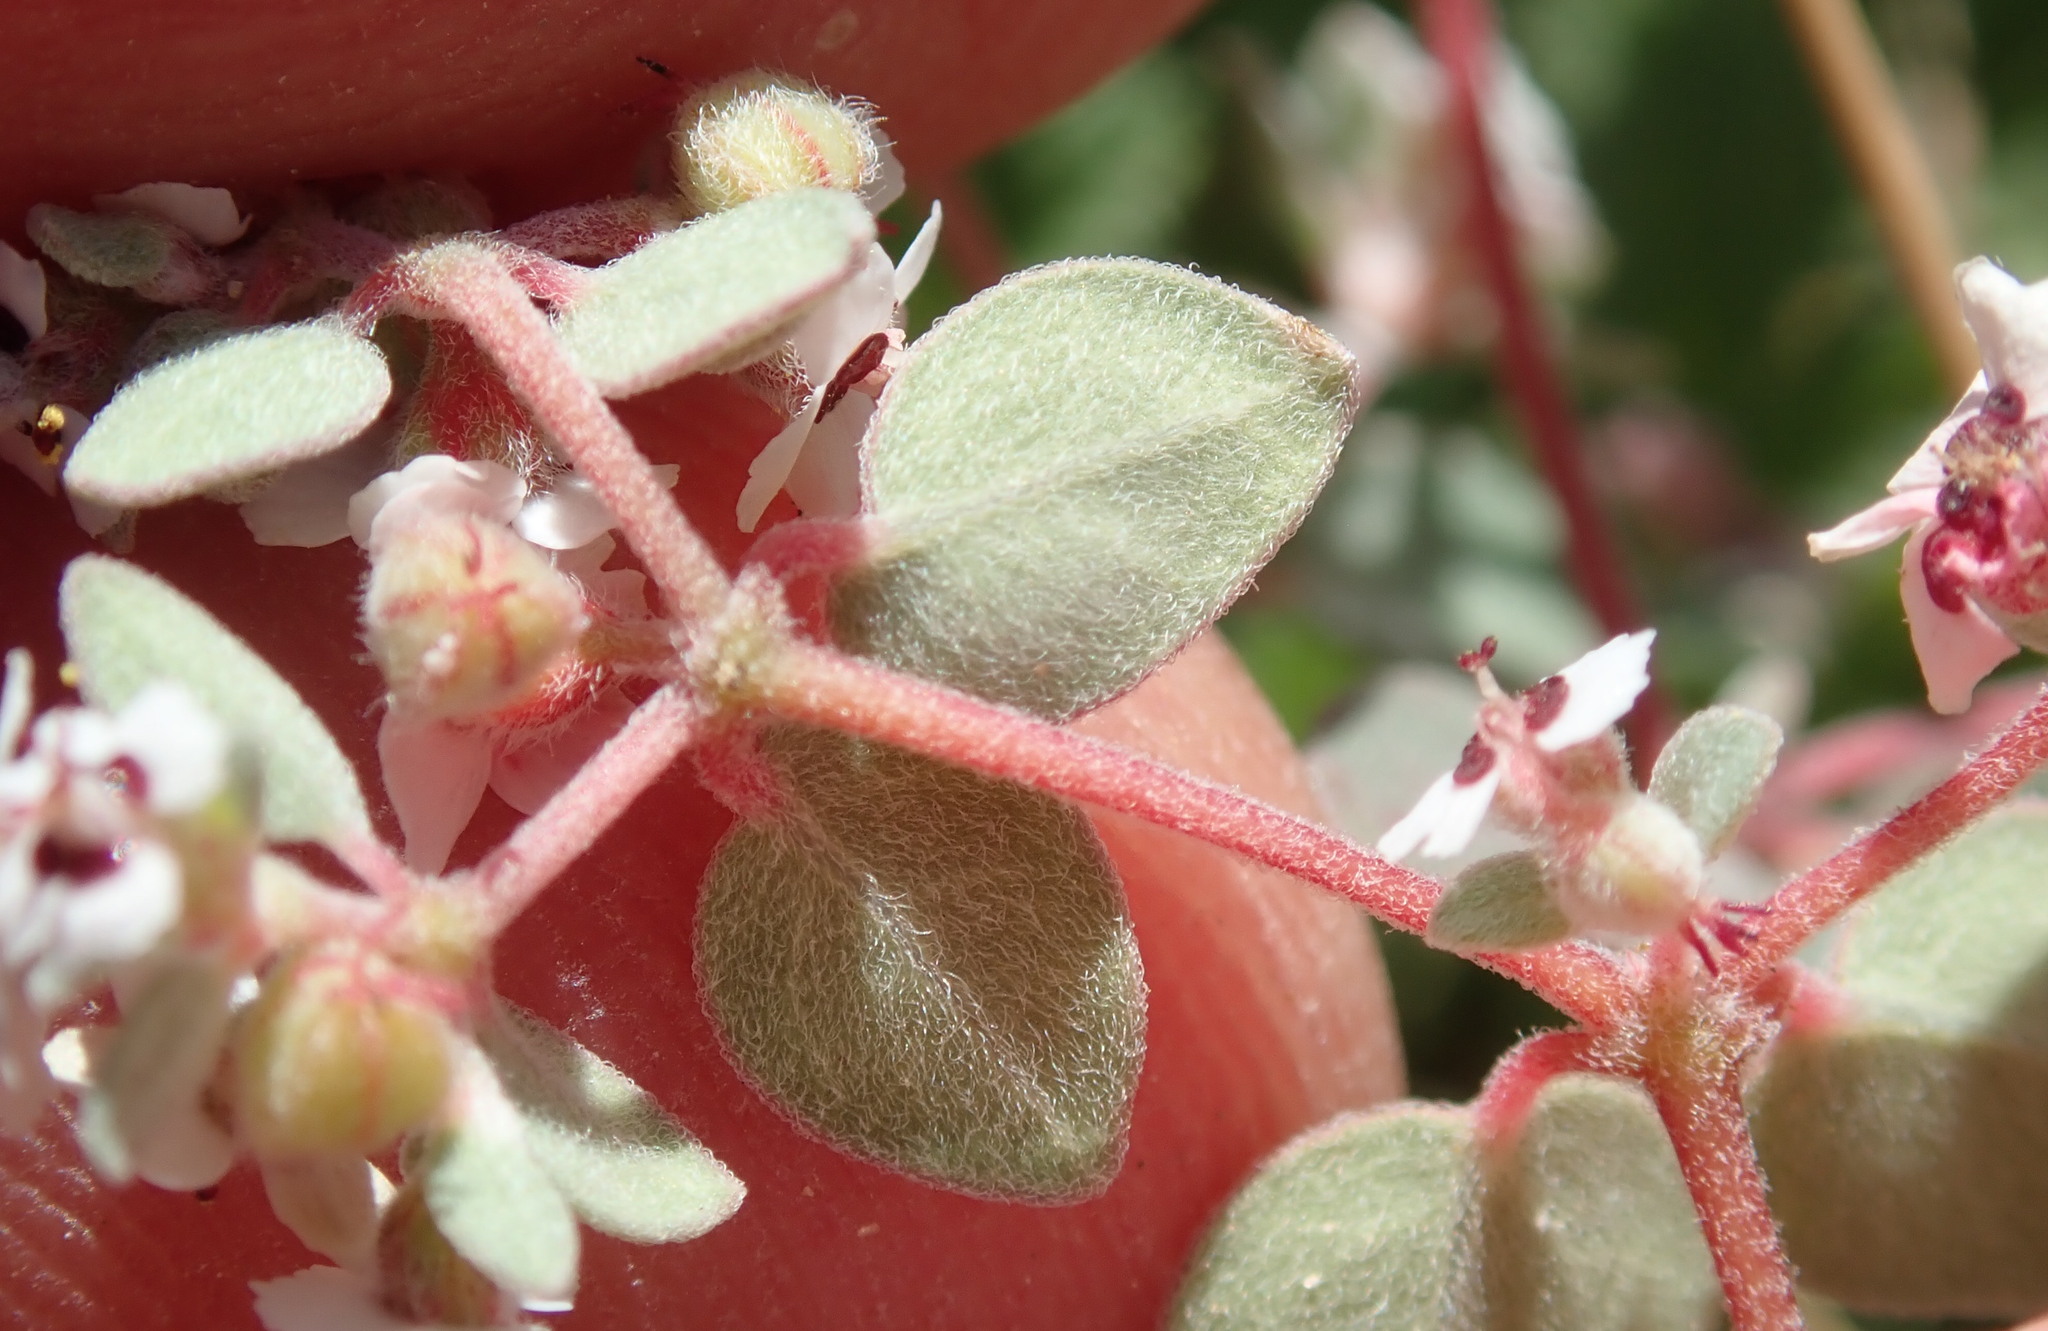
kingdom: Plantae
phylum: Tracheophyta
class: Magnoliopsida
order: Malpighiales
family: Euphorbiaceae
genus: Euphorbia
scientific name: Euphorbia melanadenia
